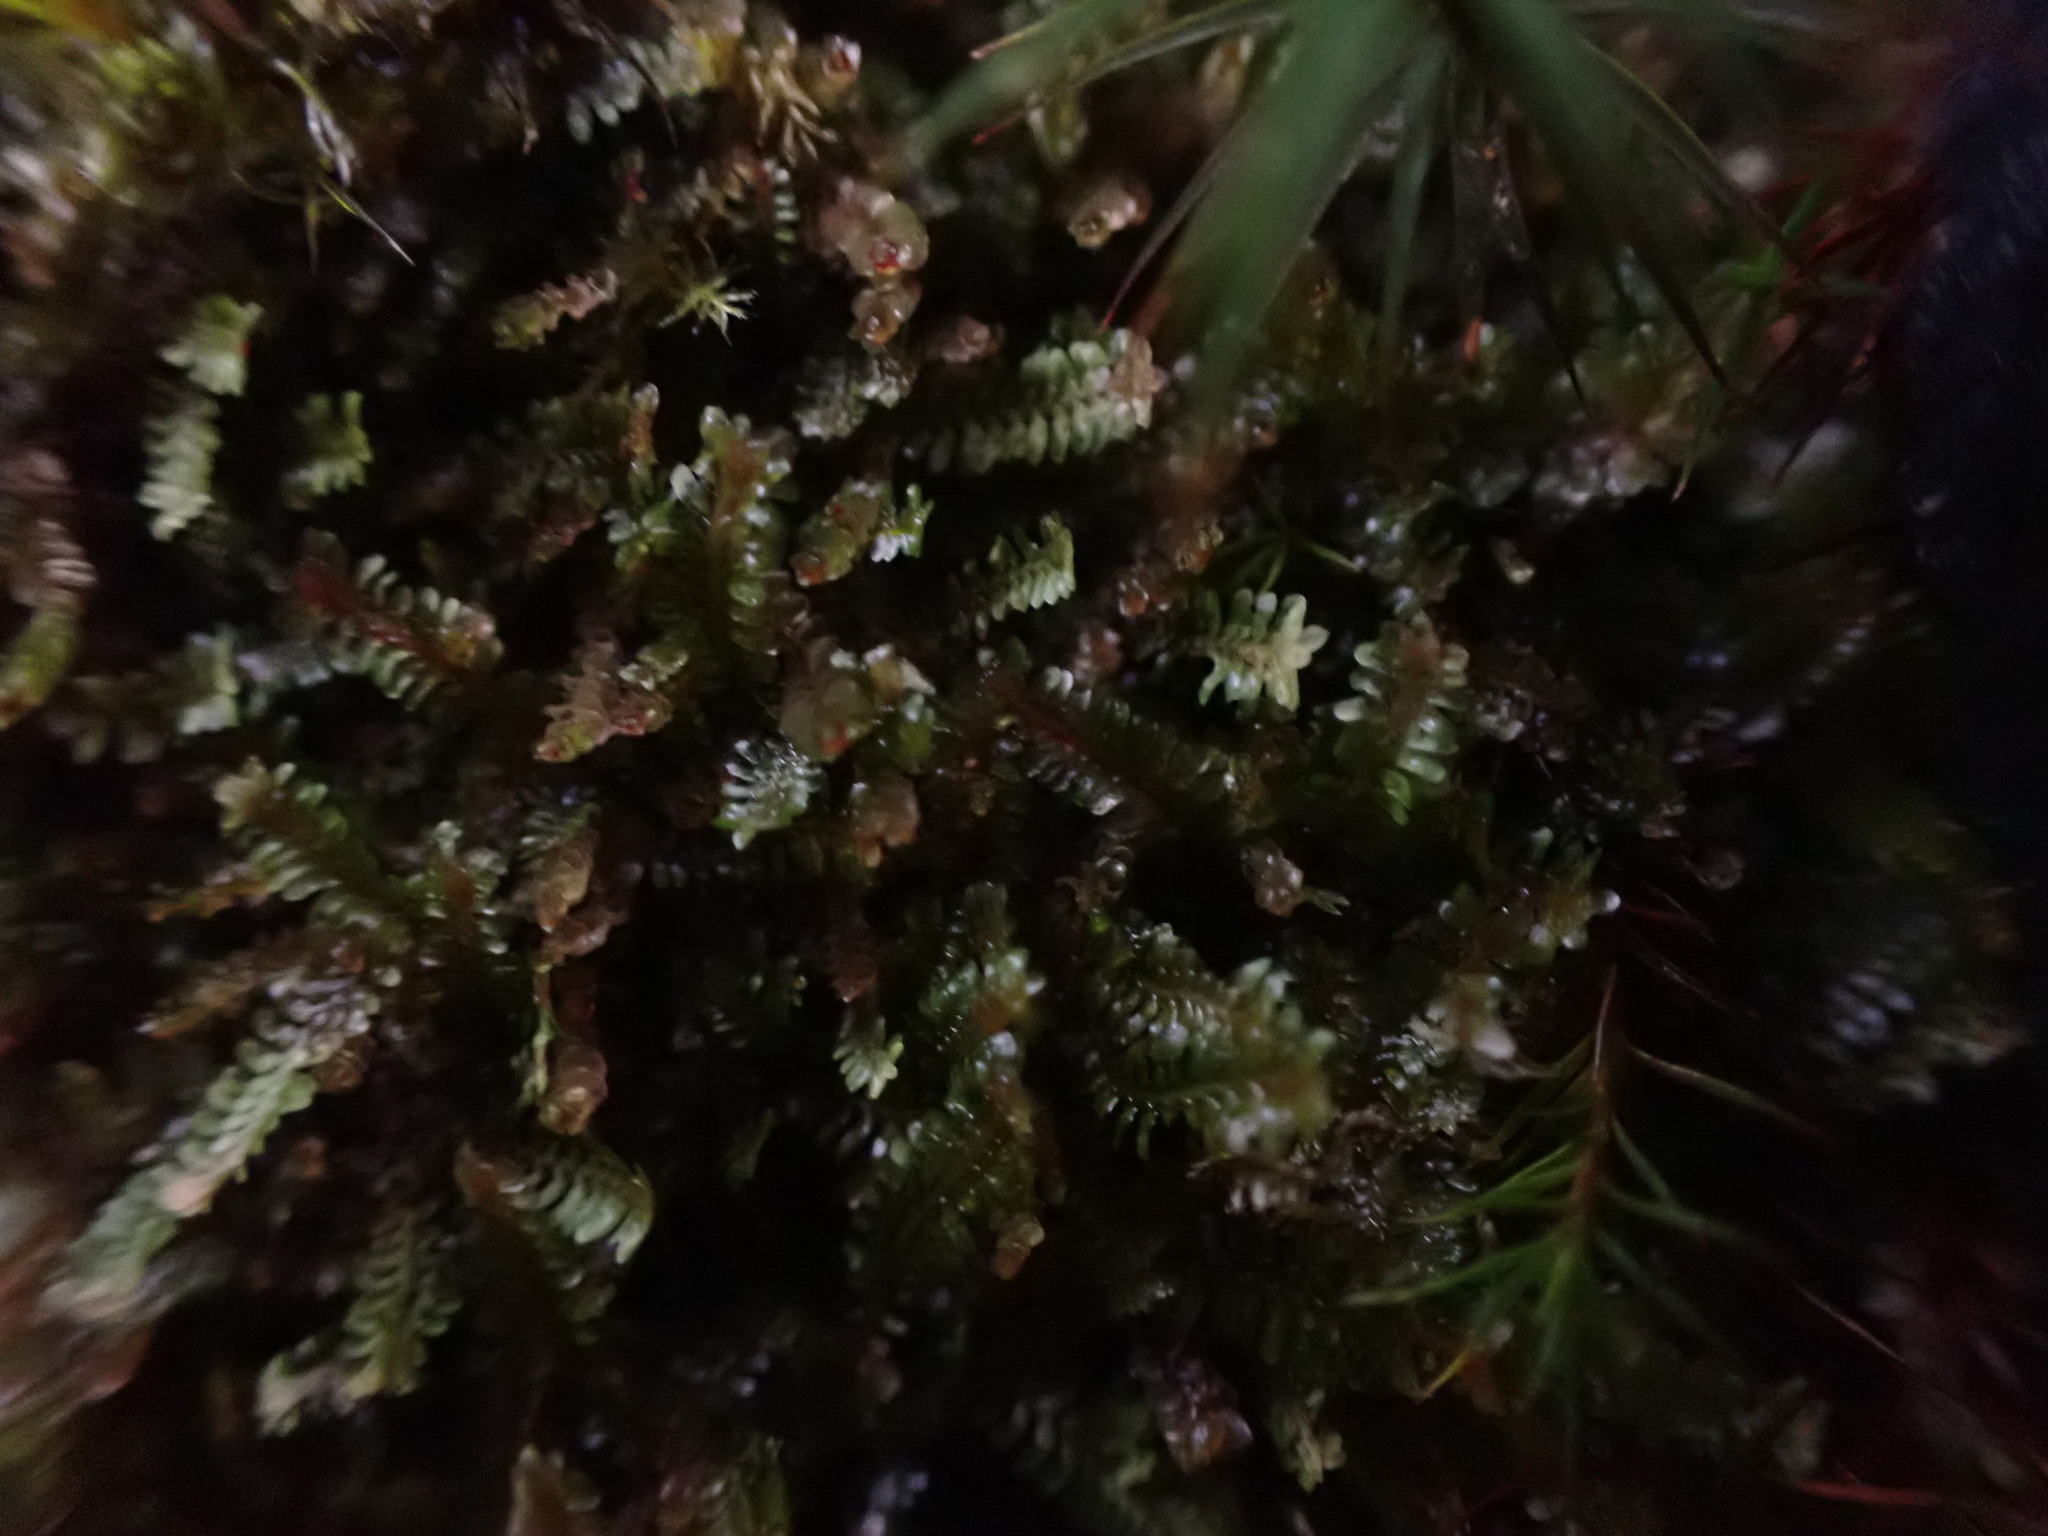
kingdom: Plantae
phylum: Marchantiophyta
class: Jungermanniopsida
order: Jungermanniales
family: Scapaniaceae
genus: Diplophyllum
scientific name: Diplophyllum albicans
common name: White earwort
